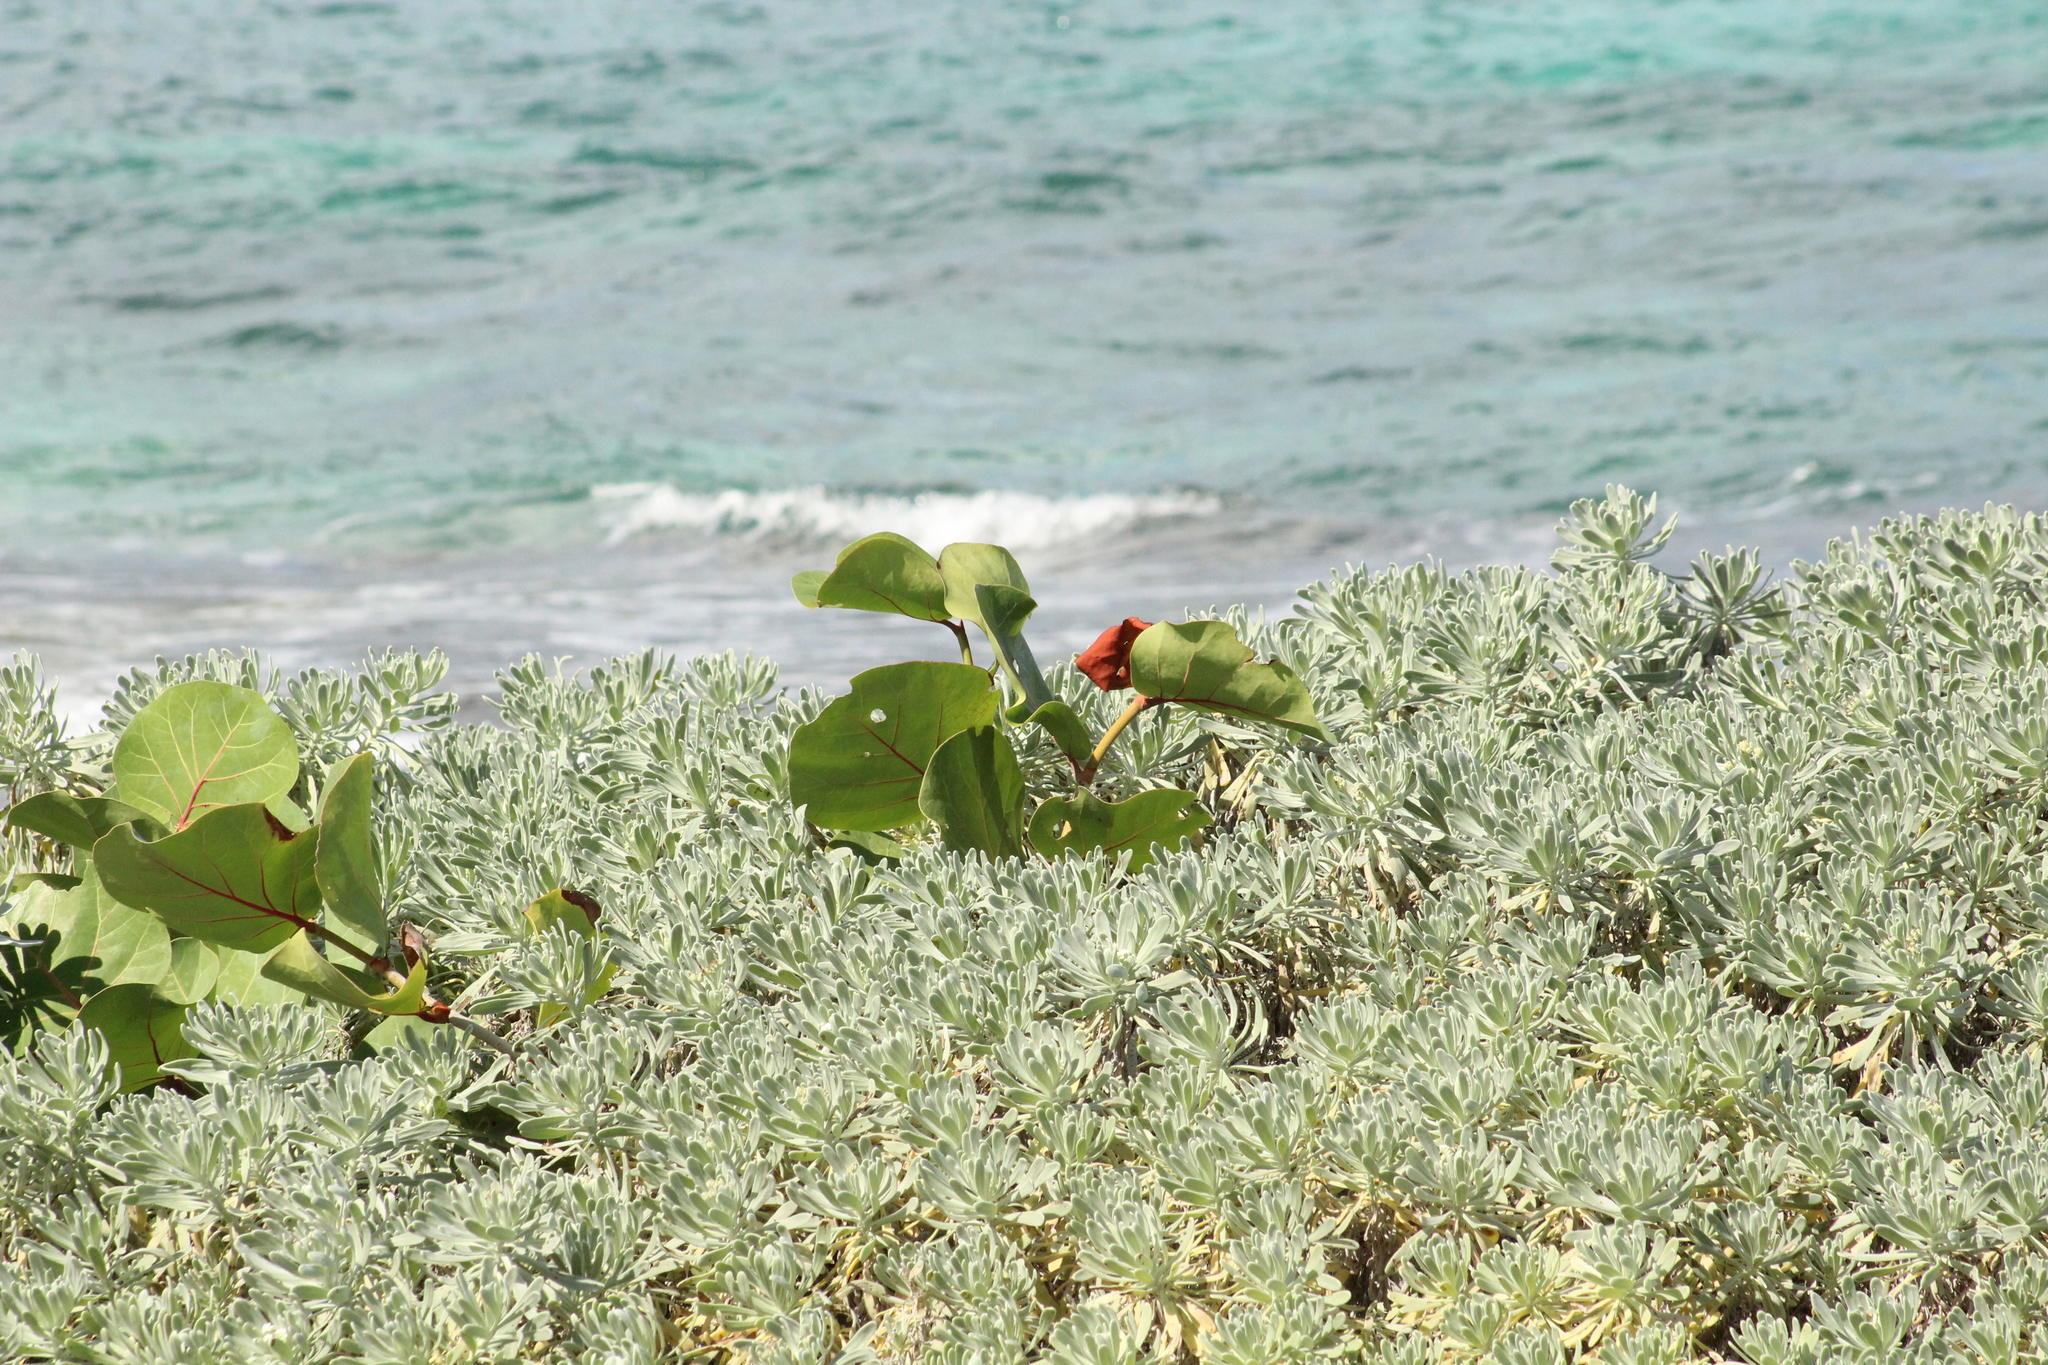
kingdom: Plantae
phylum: Tracheophyta
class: Magnoliopsida
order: Caryophyllales
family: Polygonaceae
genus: Coccoloba
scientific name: Coccoloba uvifera
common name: Seagrape
